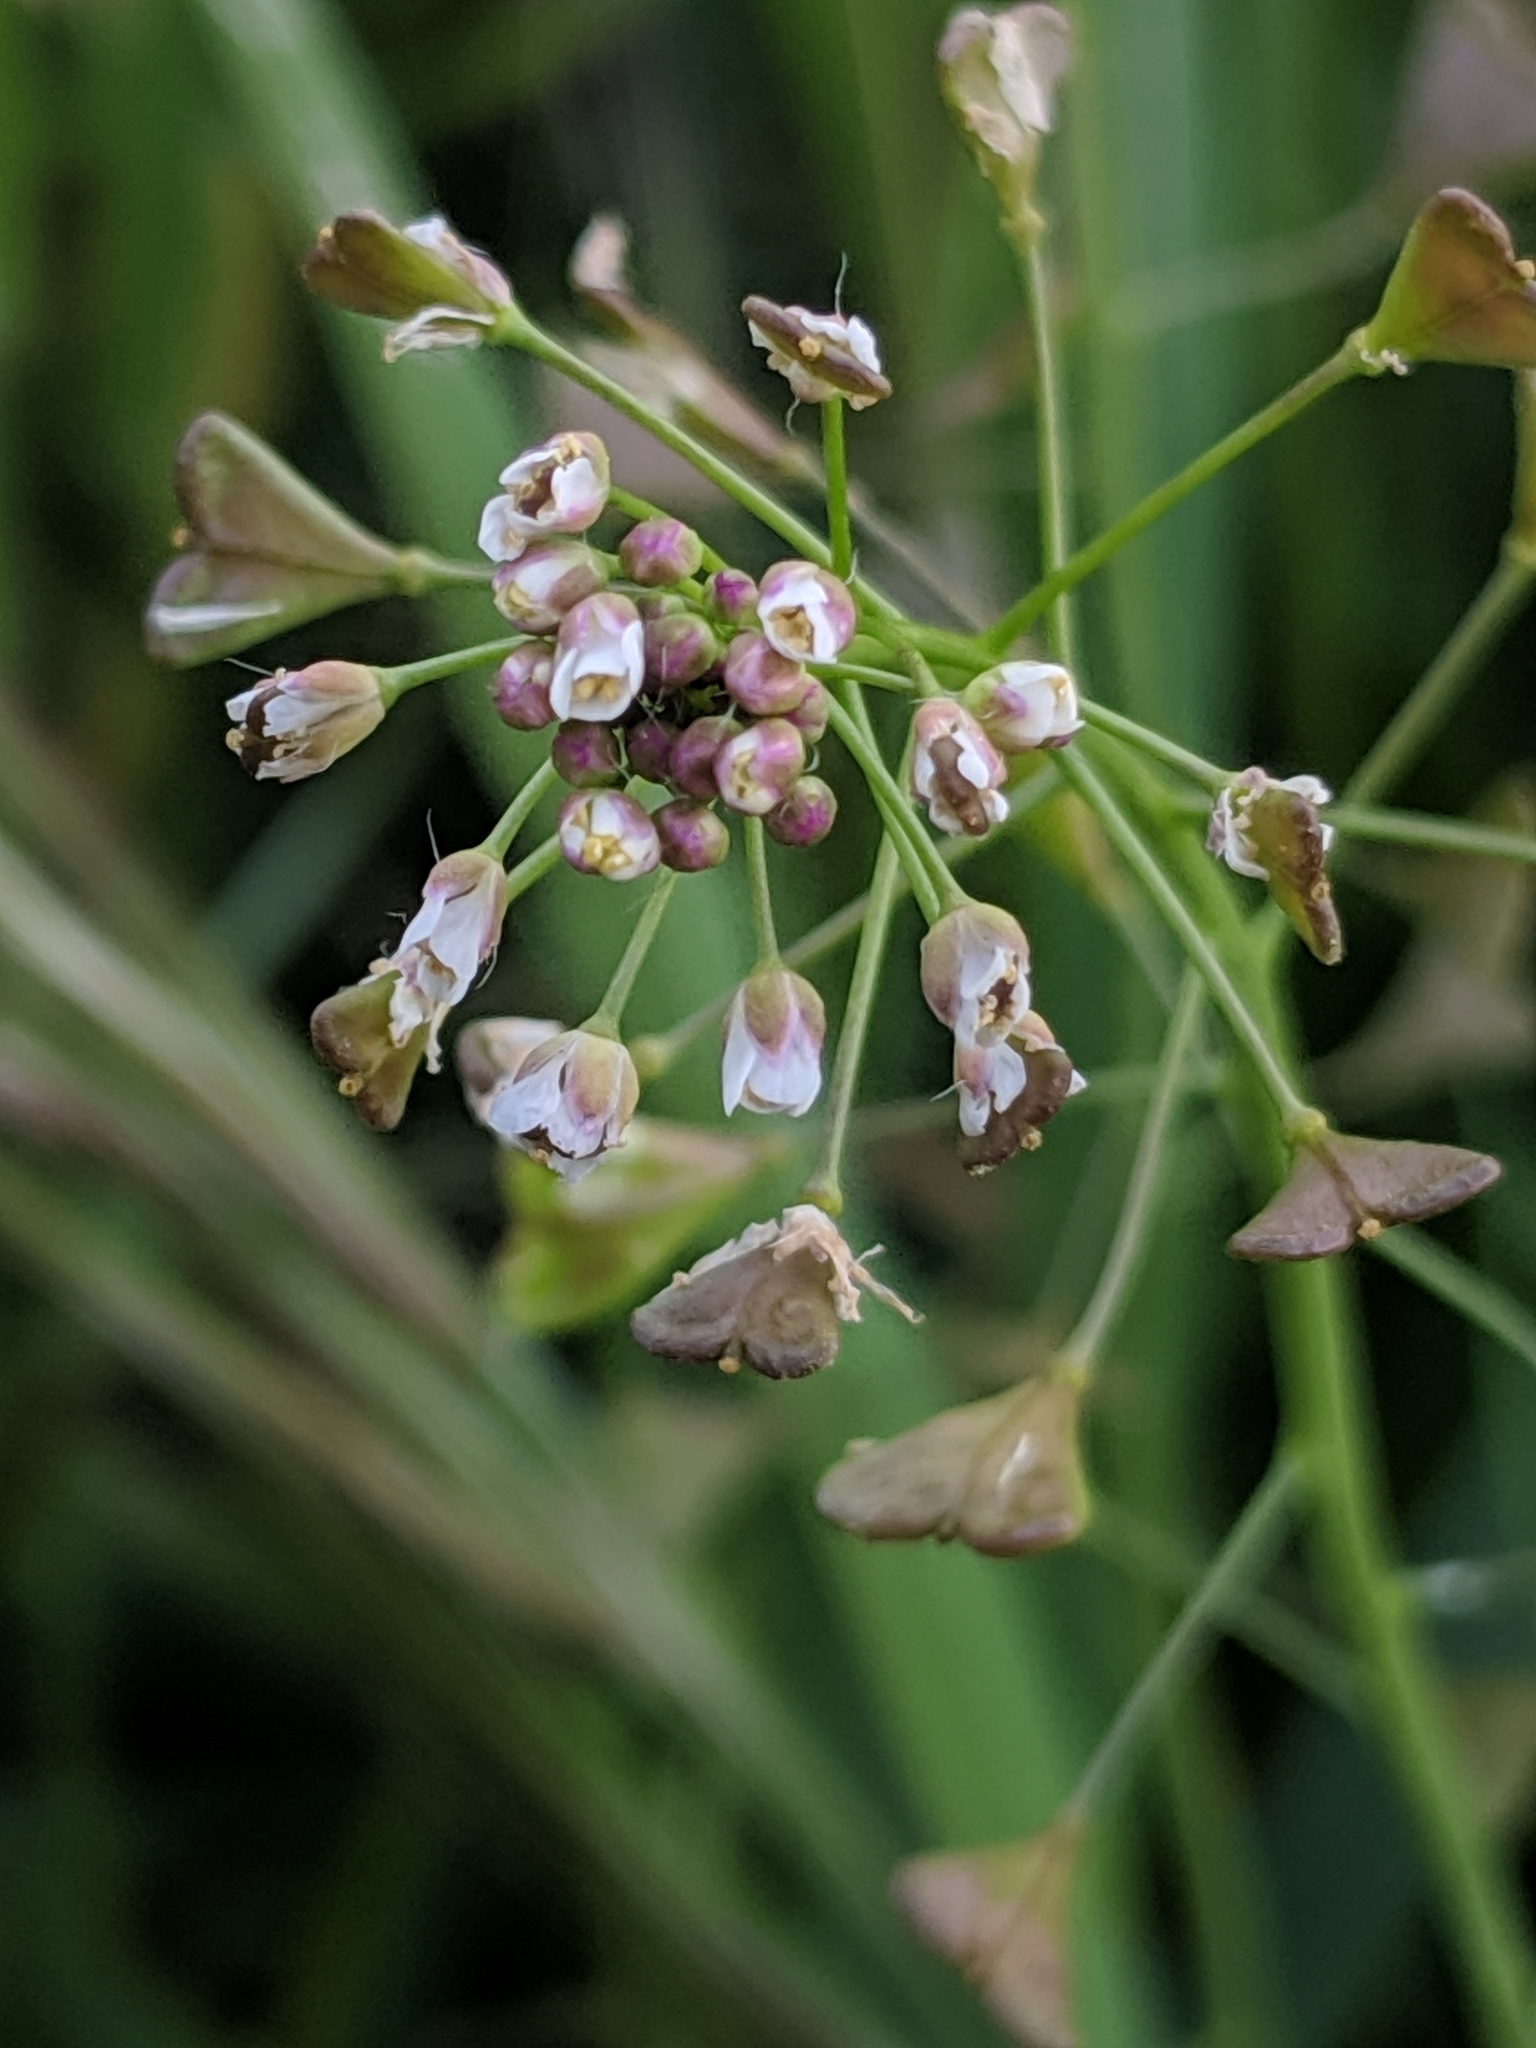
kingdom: Plantae
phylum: Tracheophyta
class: Magnoliopsida
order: Brassicales
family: Brassicaceae
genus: Capsella
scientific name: Capsella bursa-pastoris
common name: Shepherd's purse
